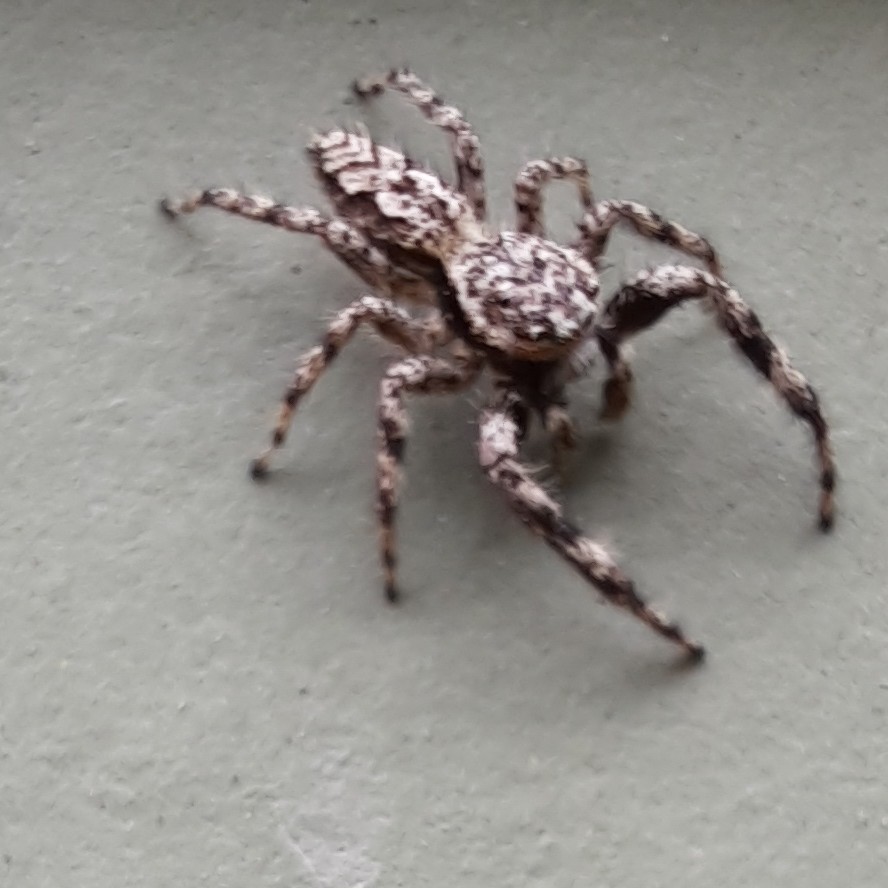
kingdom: Animalia
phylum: Arthropoda
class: Arachnida
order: Araneae
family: Salticidae
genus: Platycryptus
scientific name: Platycryptus undatus
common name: Tan jumping spider
